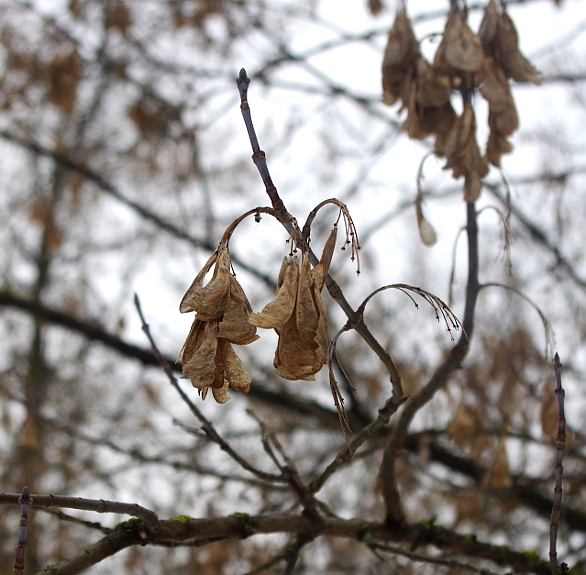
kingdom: Plantae
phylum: Tracheophyta
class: Magnoliopsida
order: Sapindales
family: Sapindaceae
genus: Acer
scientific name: Acer negundo
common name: Ashleaf maple
